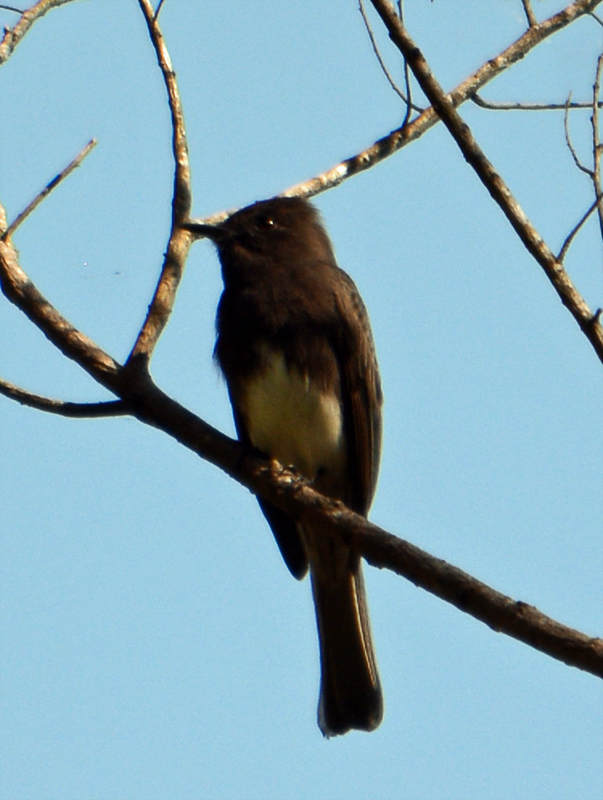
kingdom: Animalia
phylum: Chordata
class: Aves
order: Passeriformes
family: Tyrannidae
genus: Sayornis
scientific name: Sayornis nigricans
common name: Black phoebe
